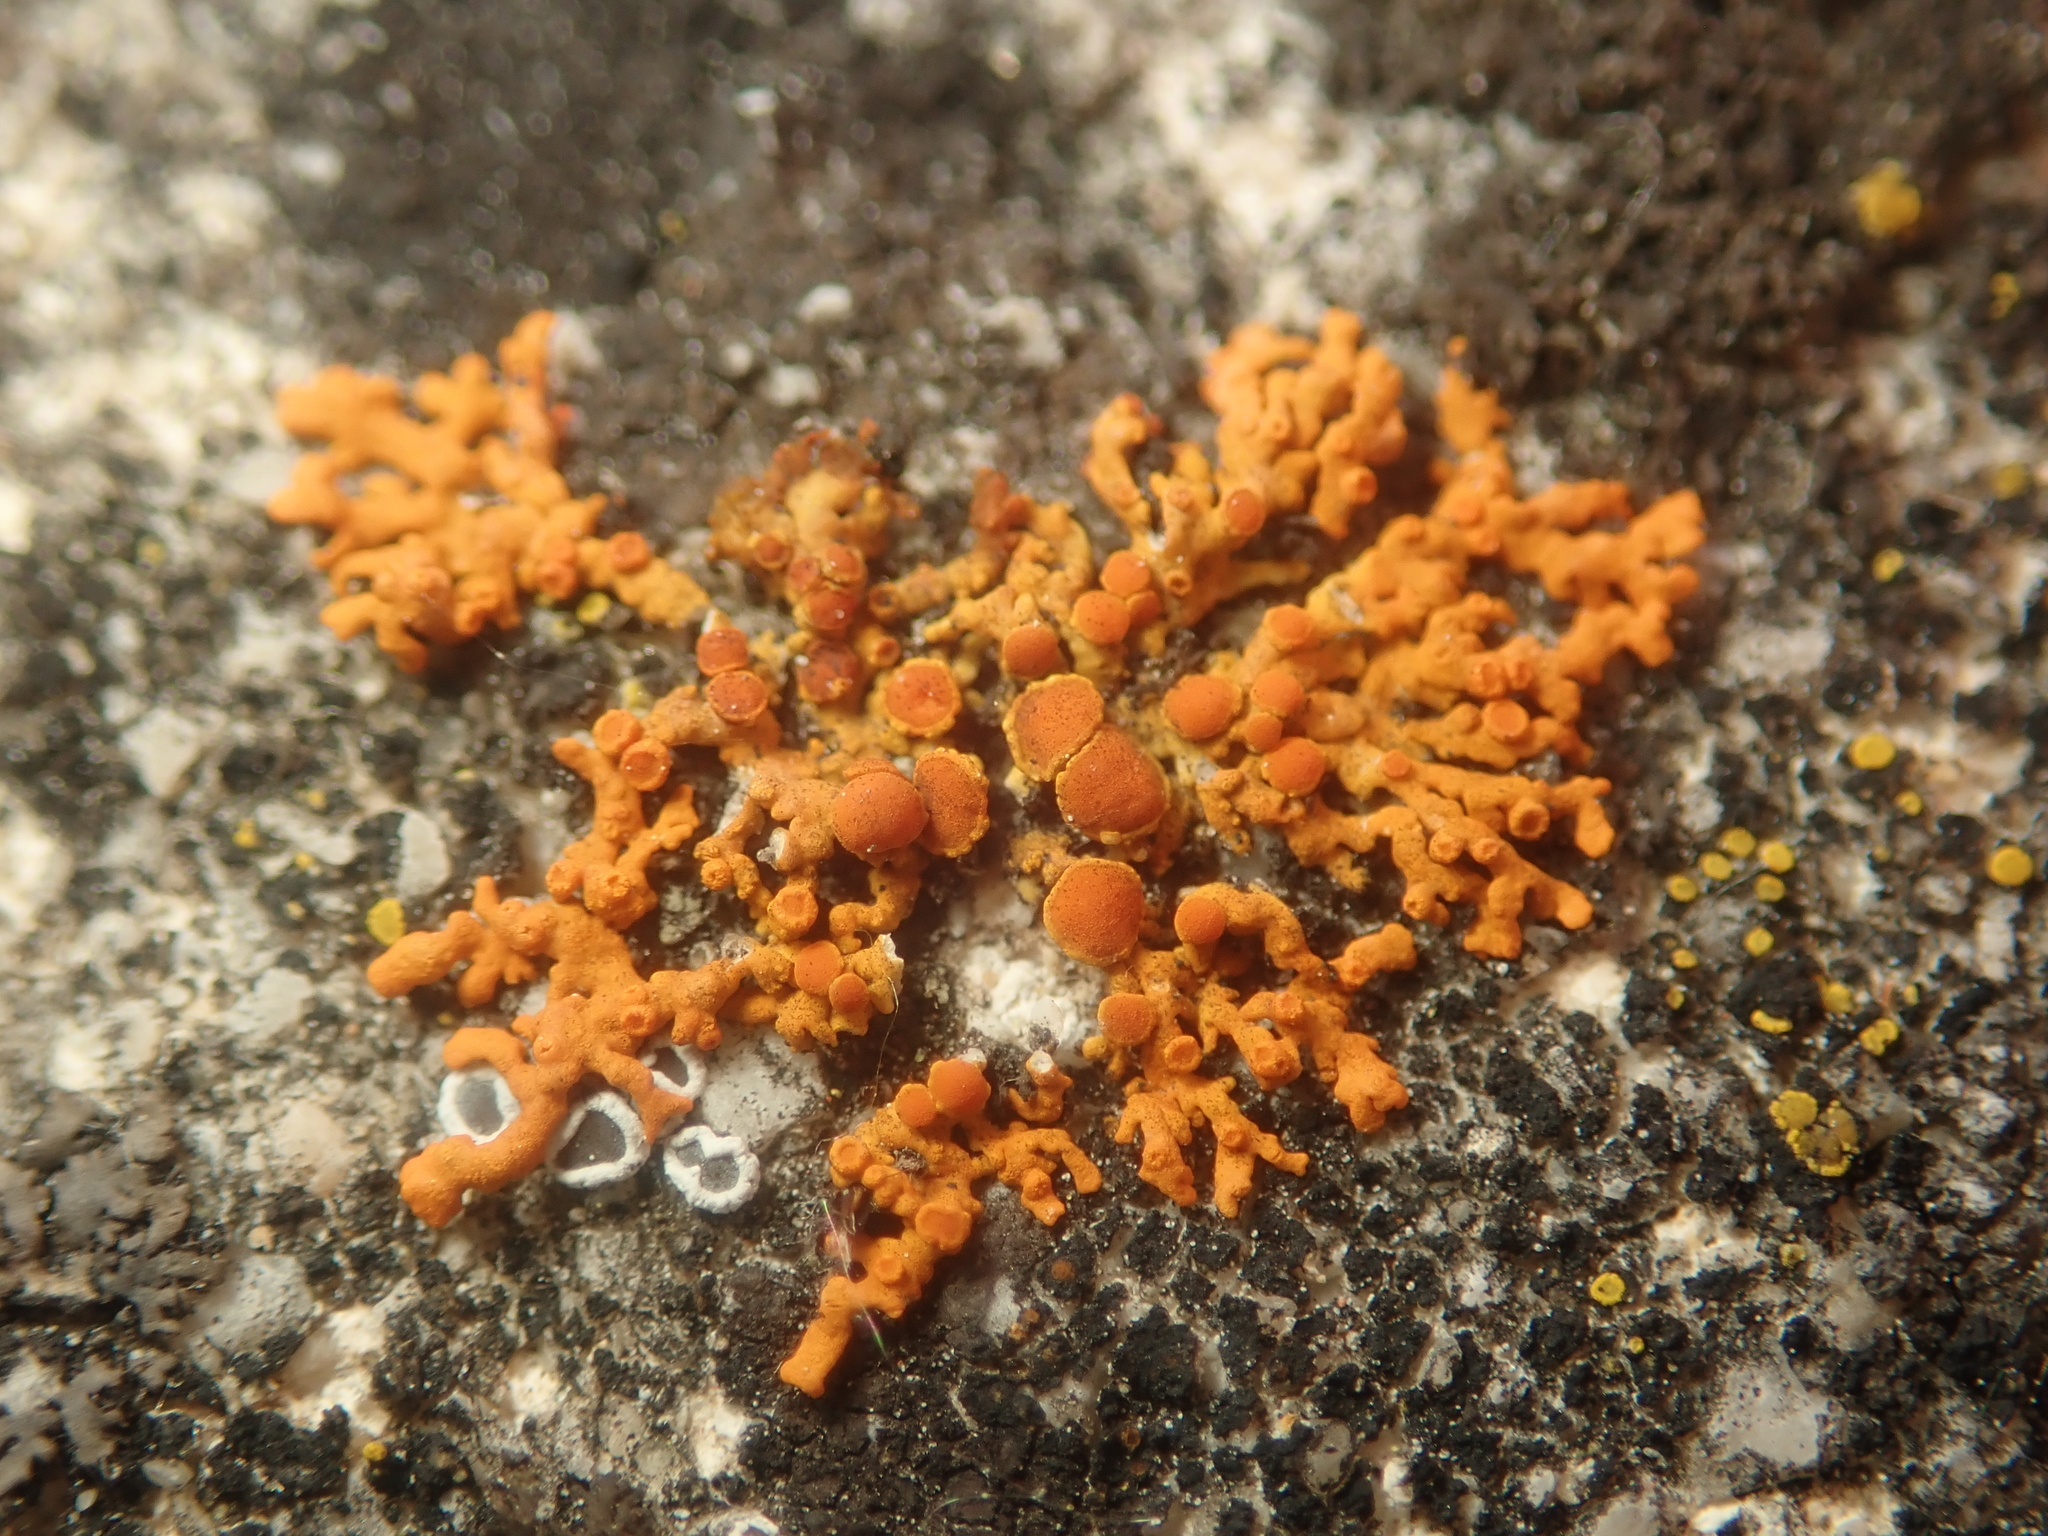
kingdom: Fungi
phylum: Ascomycota
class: Lecanoromycetes
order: Teloschistales
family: Teloschistaceae
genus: Xanthoria
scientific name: Xanthoria elegans
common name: Elegant sunburst lichen
